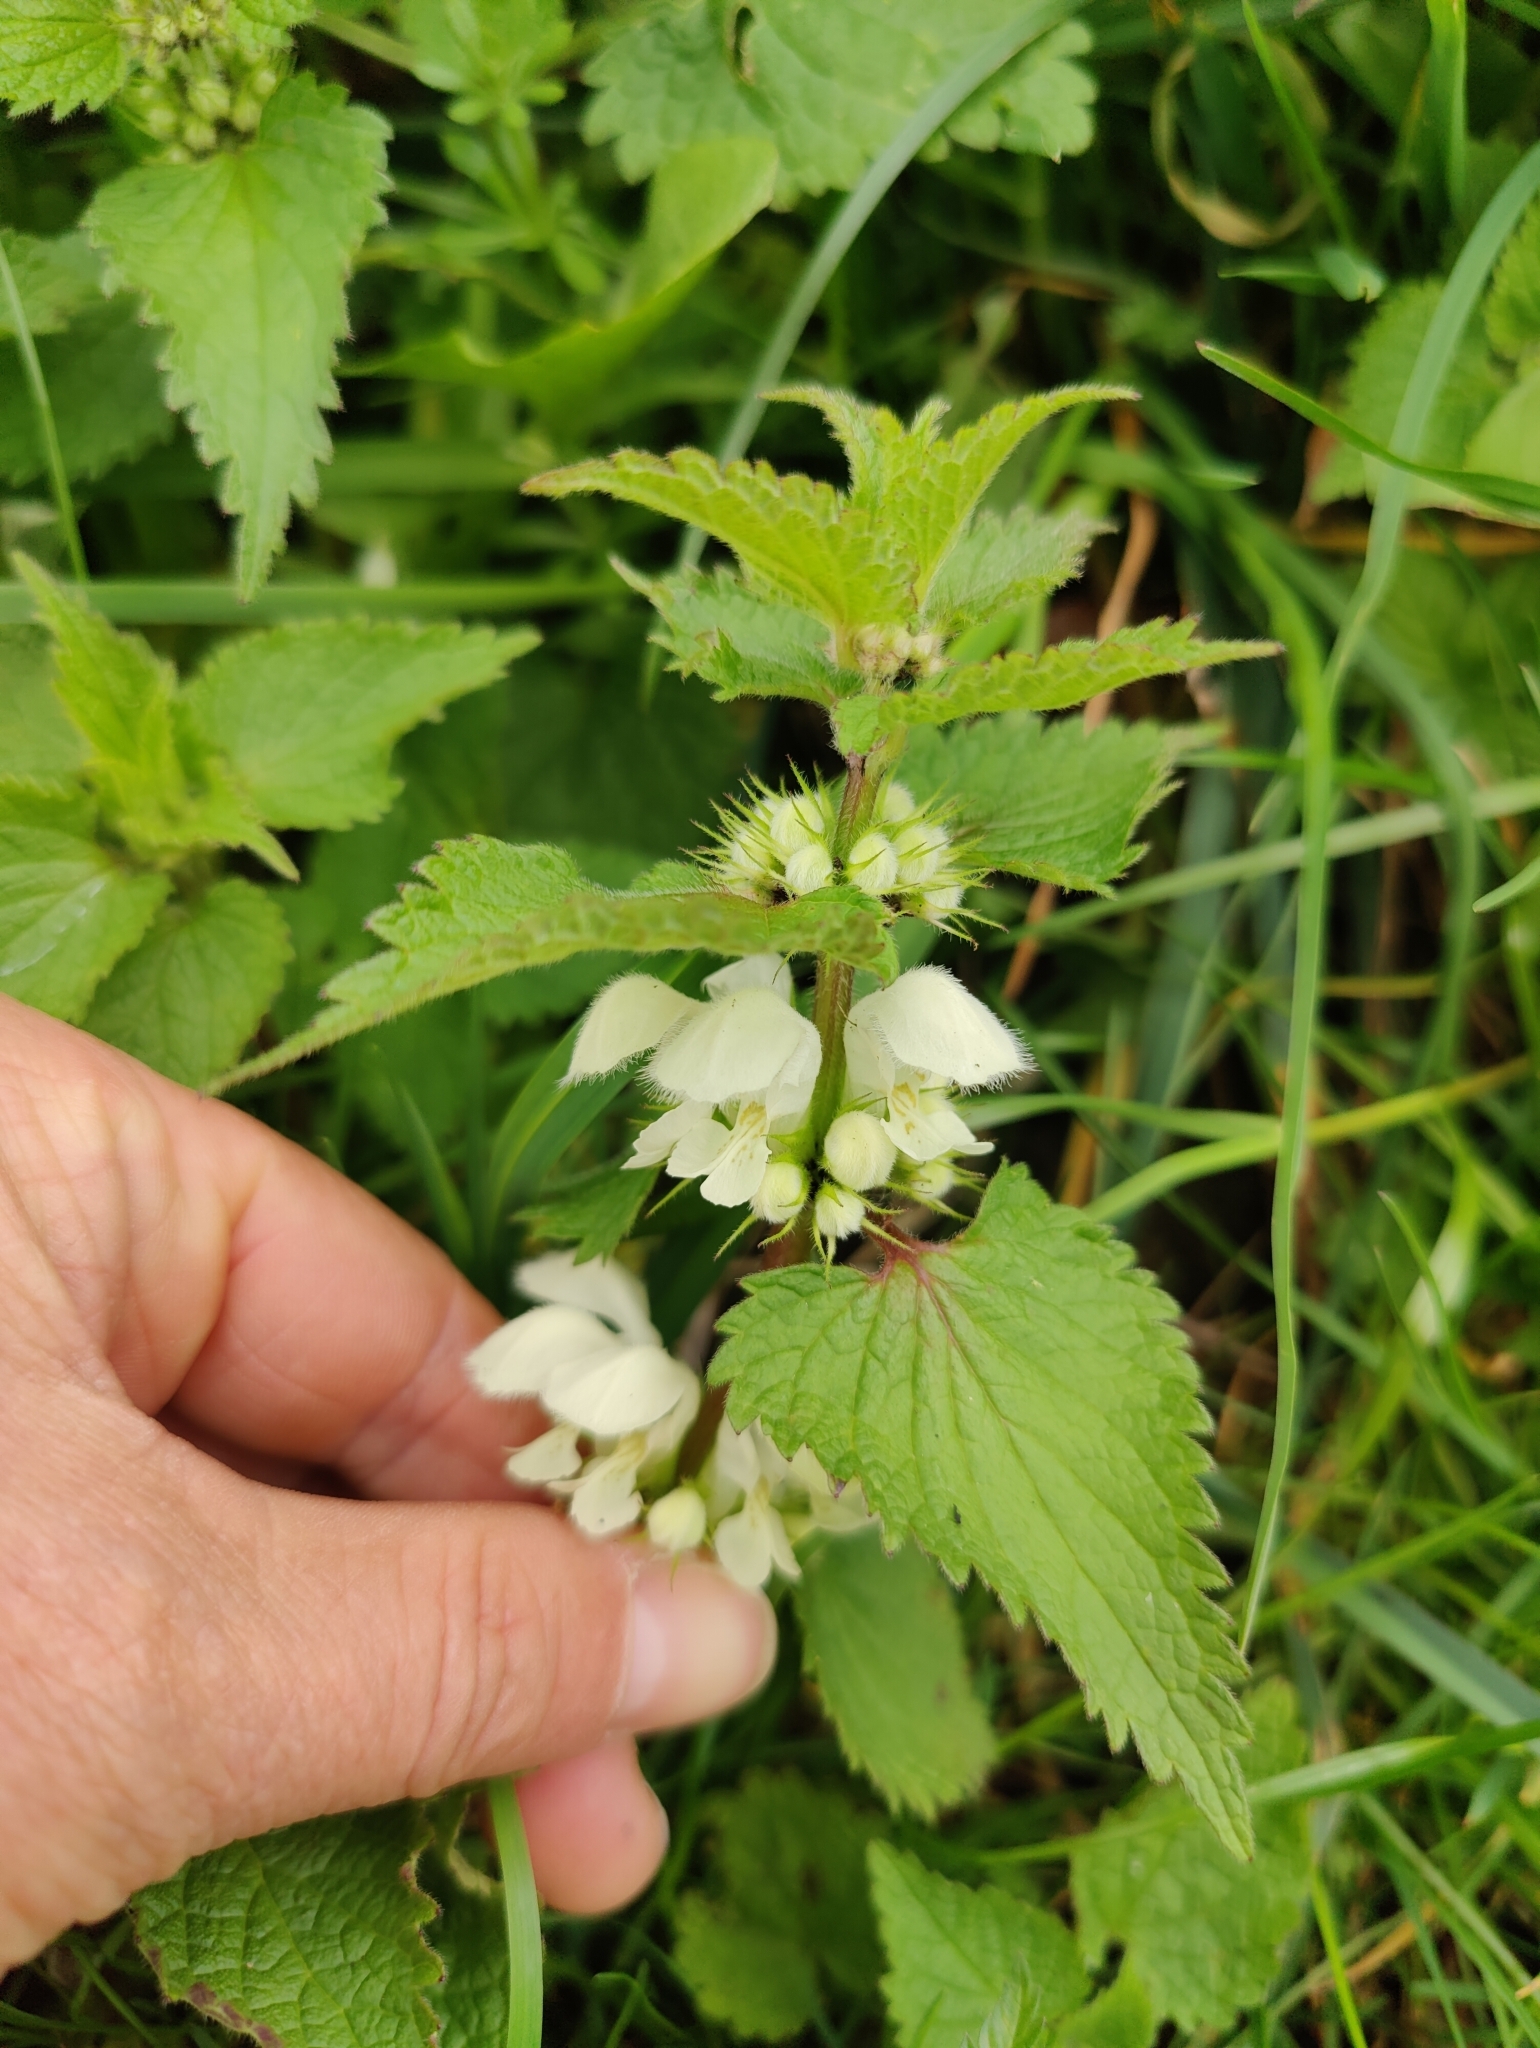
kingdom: Plantae
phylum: Tracheophyta
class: Magnoliopsida
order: Lamiales
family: Lamiaceae
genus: Lamium
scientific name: Lamium album
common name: White dead-nettle
